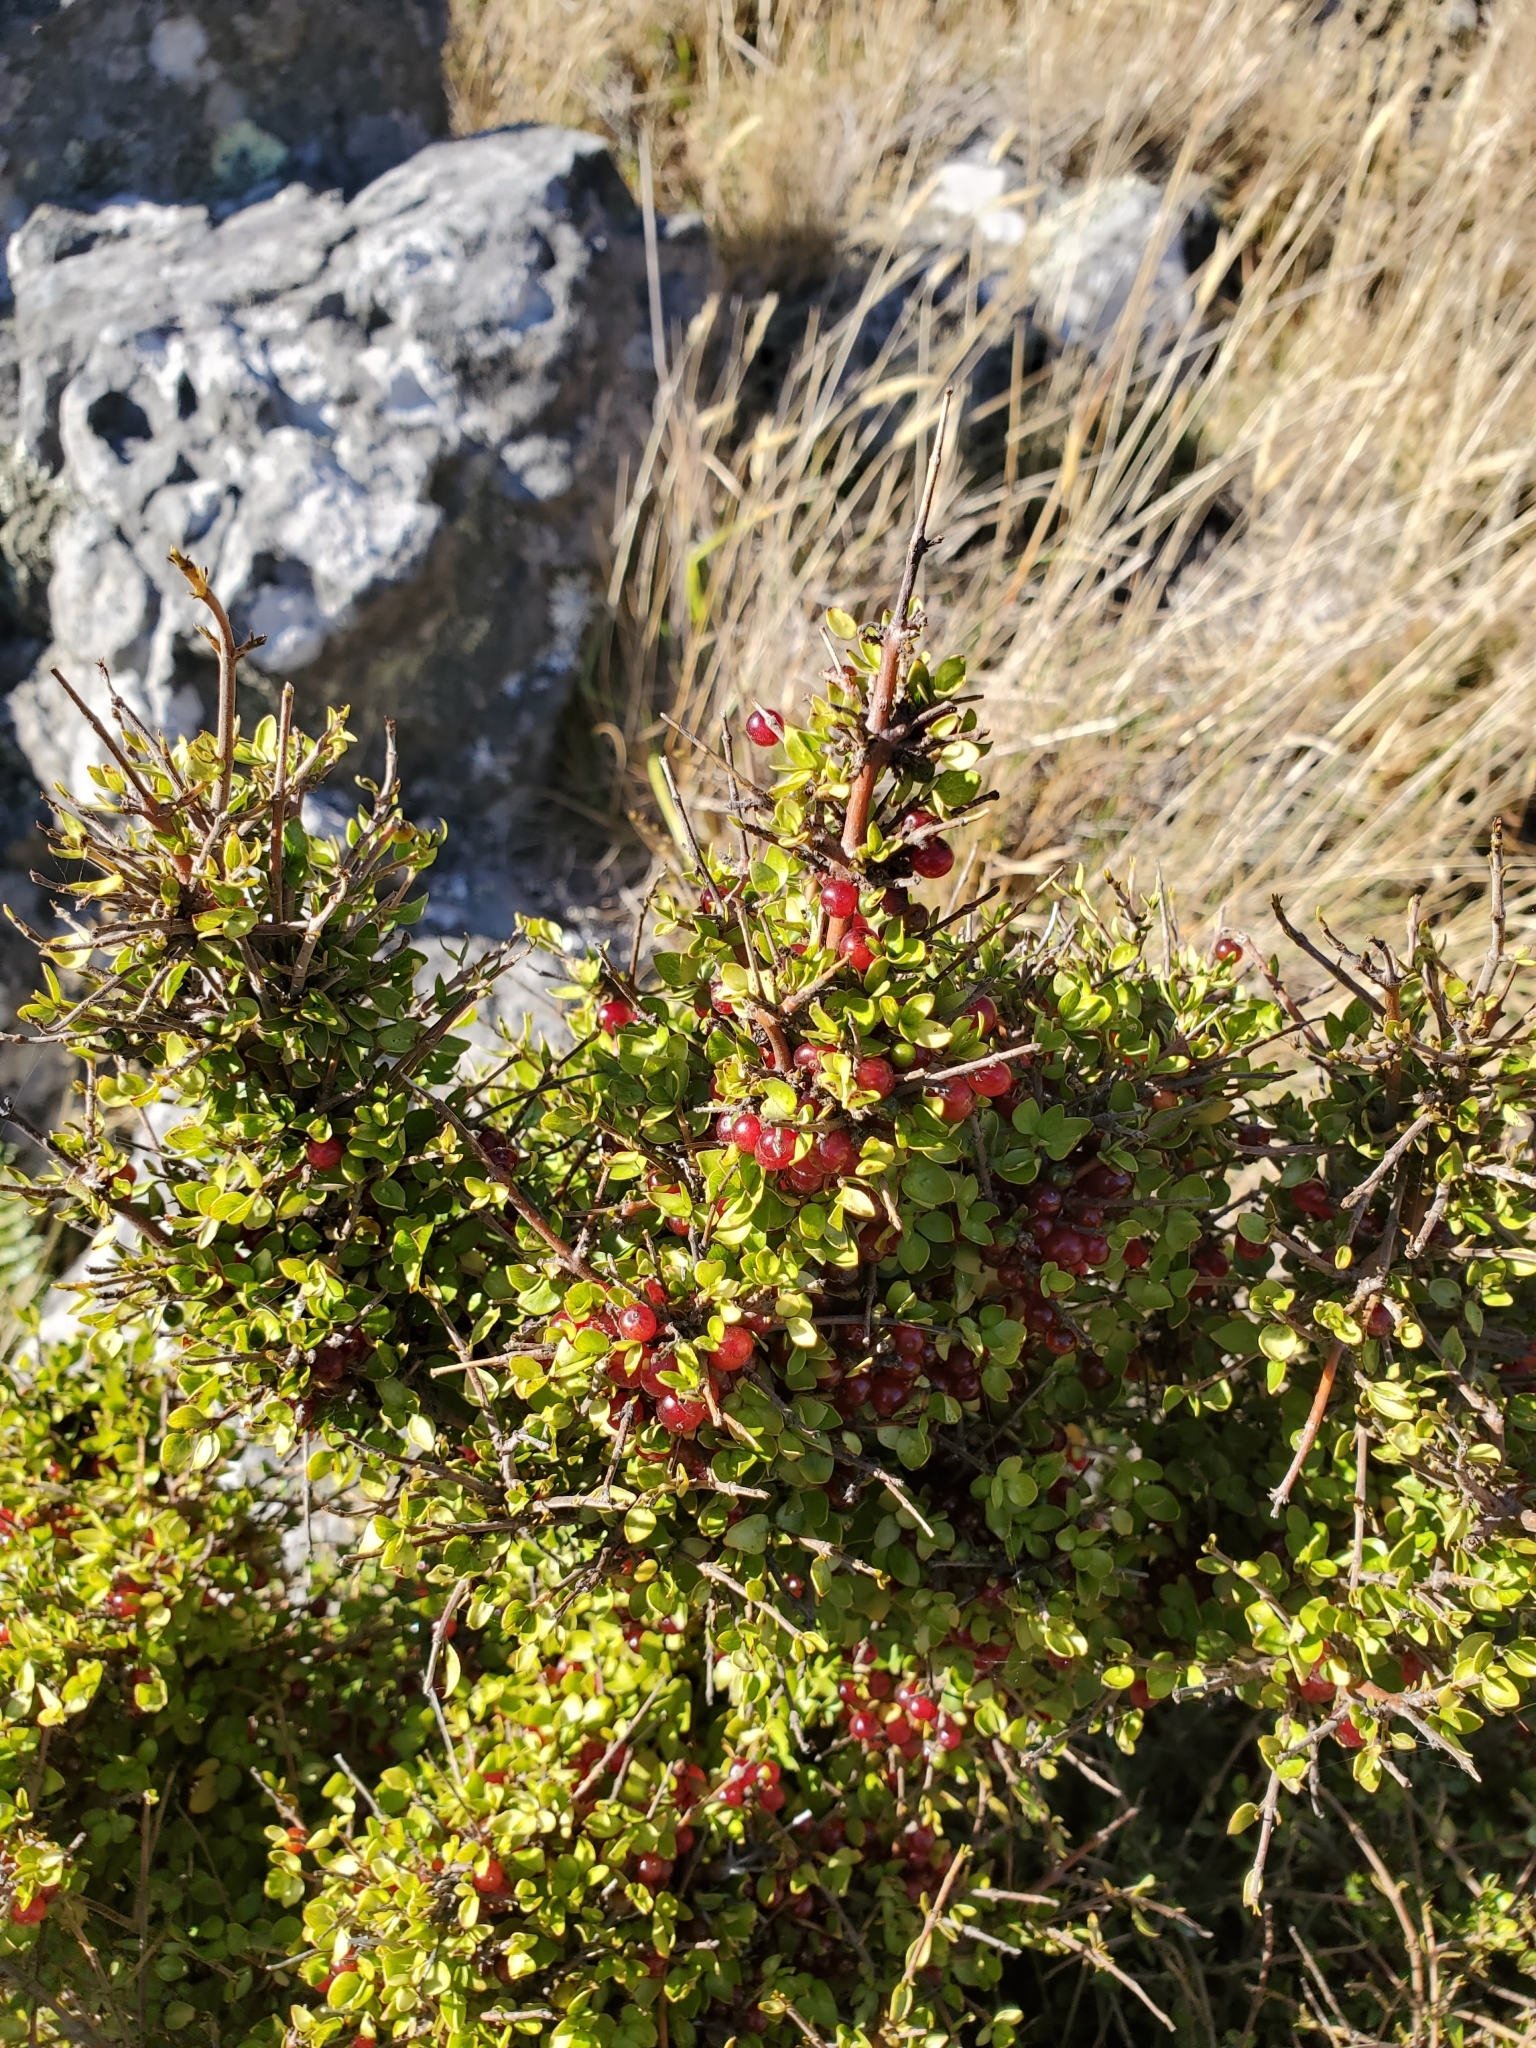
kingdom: Plantae
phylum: Tracheophyta
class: Magnoliopsida
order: Gentianales
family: Rubiaceae
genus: Coprosma
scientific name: Coprosma rhamnoides
